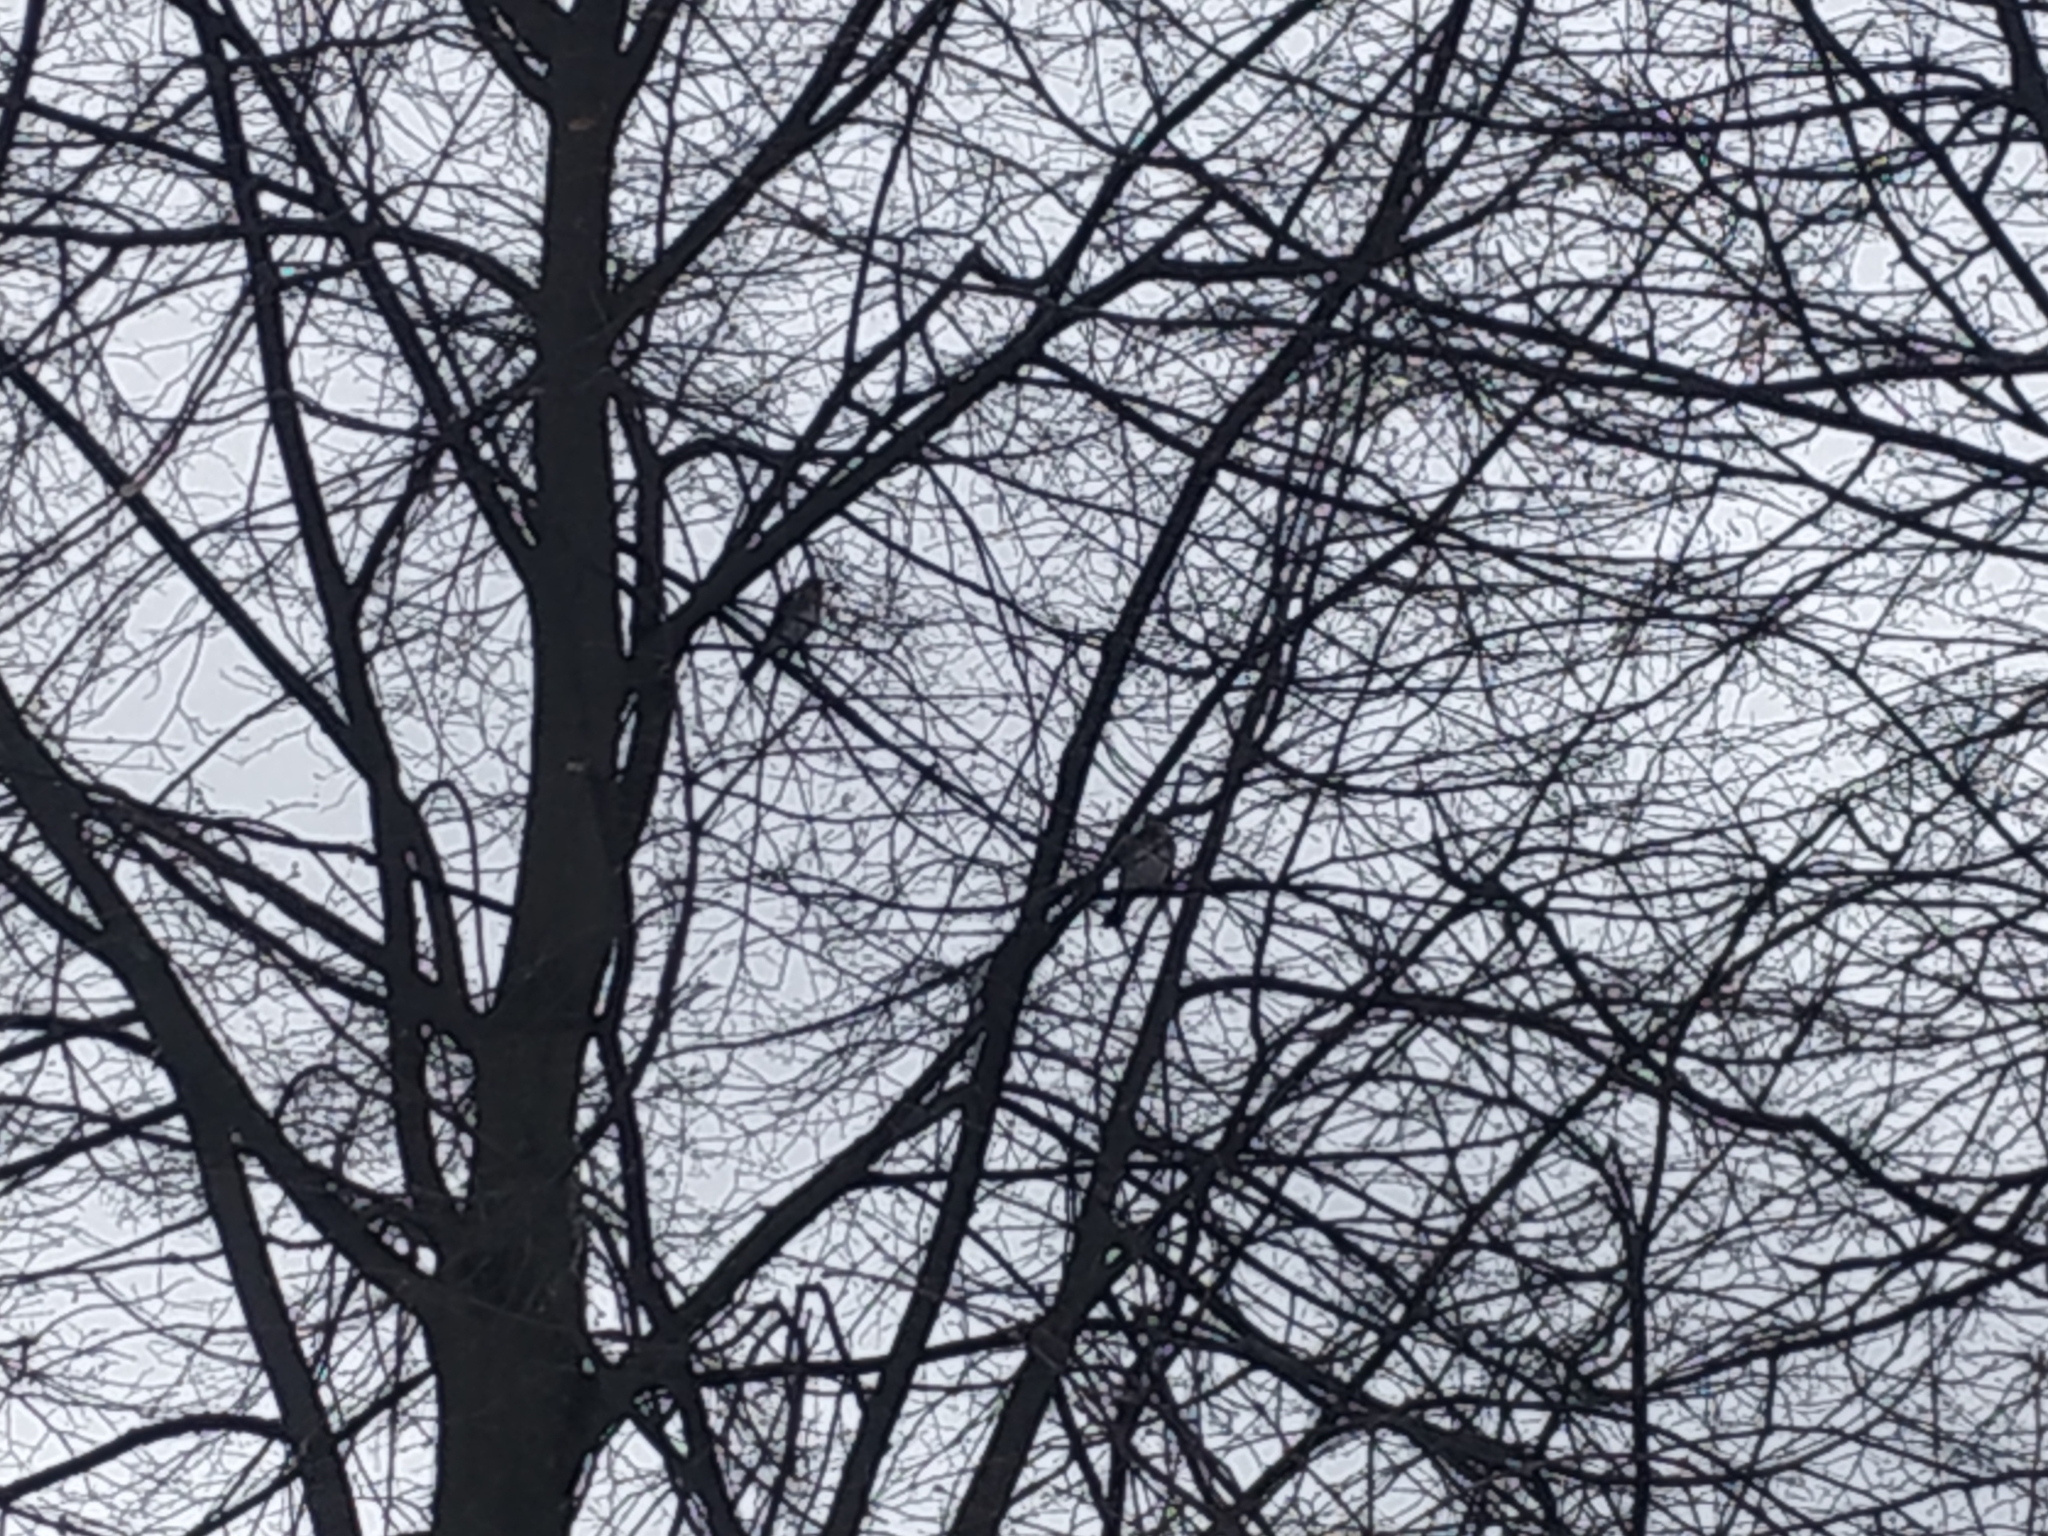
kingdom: Animalia
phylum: Chordata
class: Aves
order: Passeriformes
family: Turdidae
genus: Turdus
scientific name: Turdus pilaris
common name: Fieldfare
